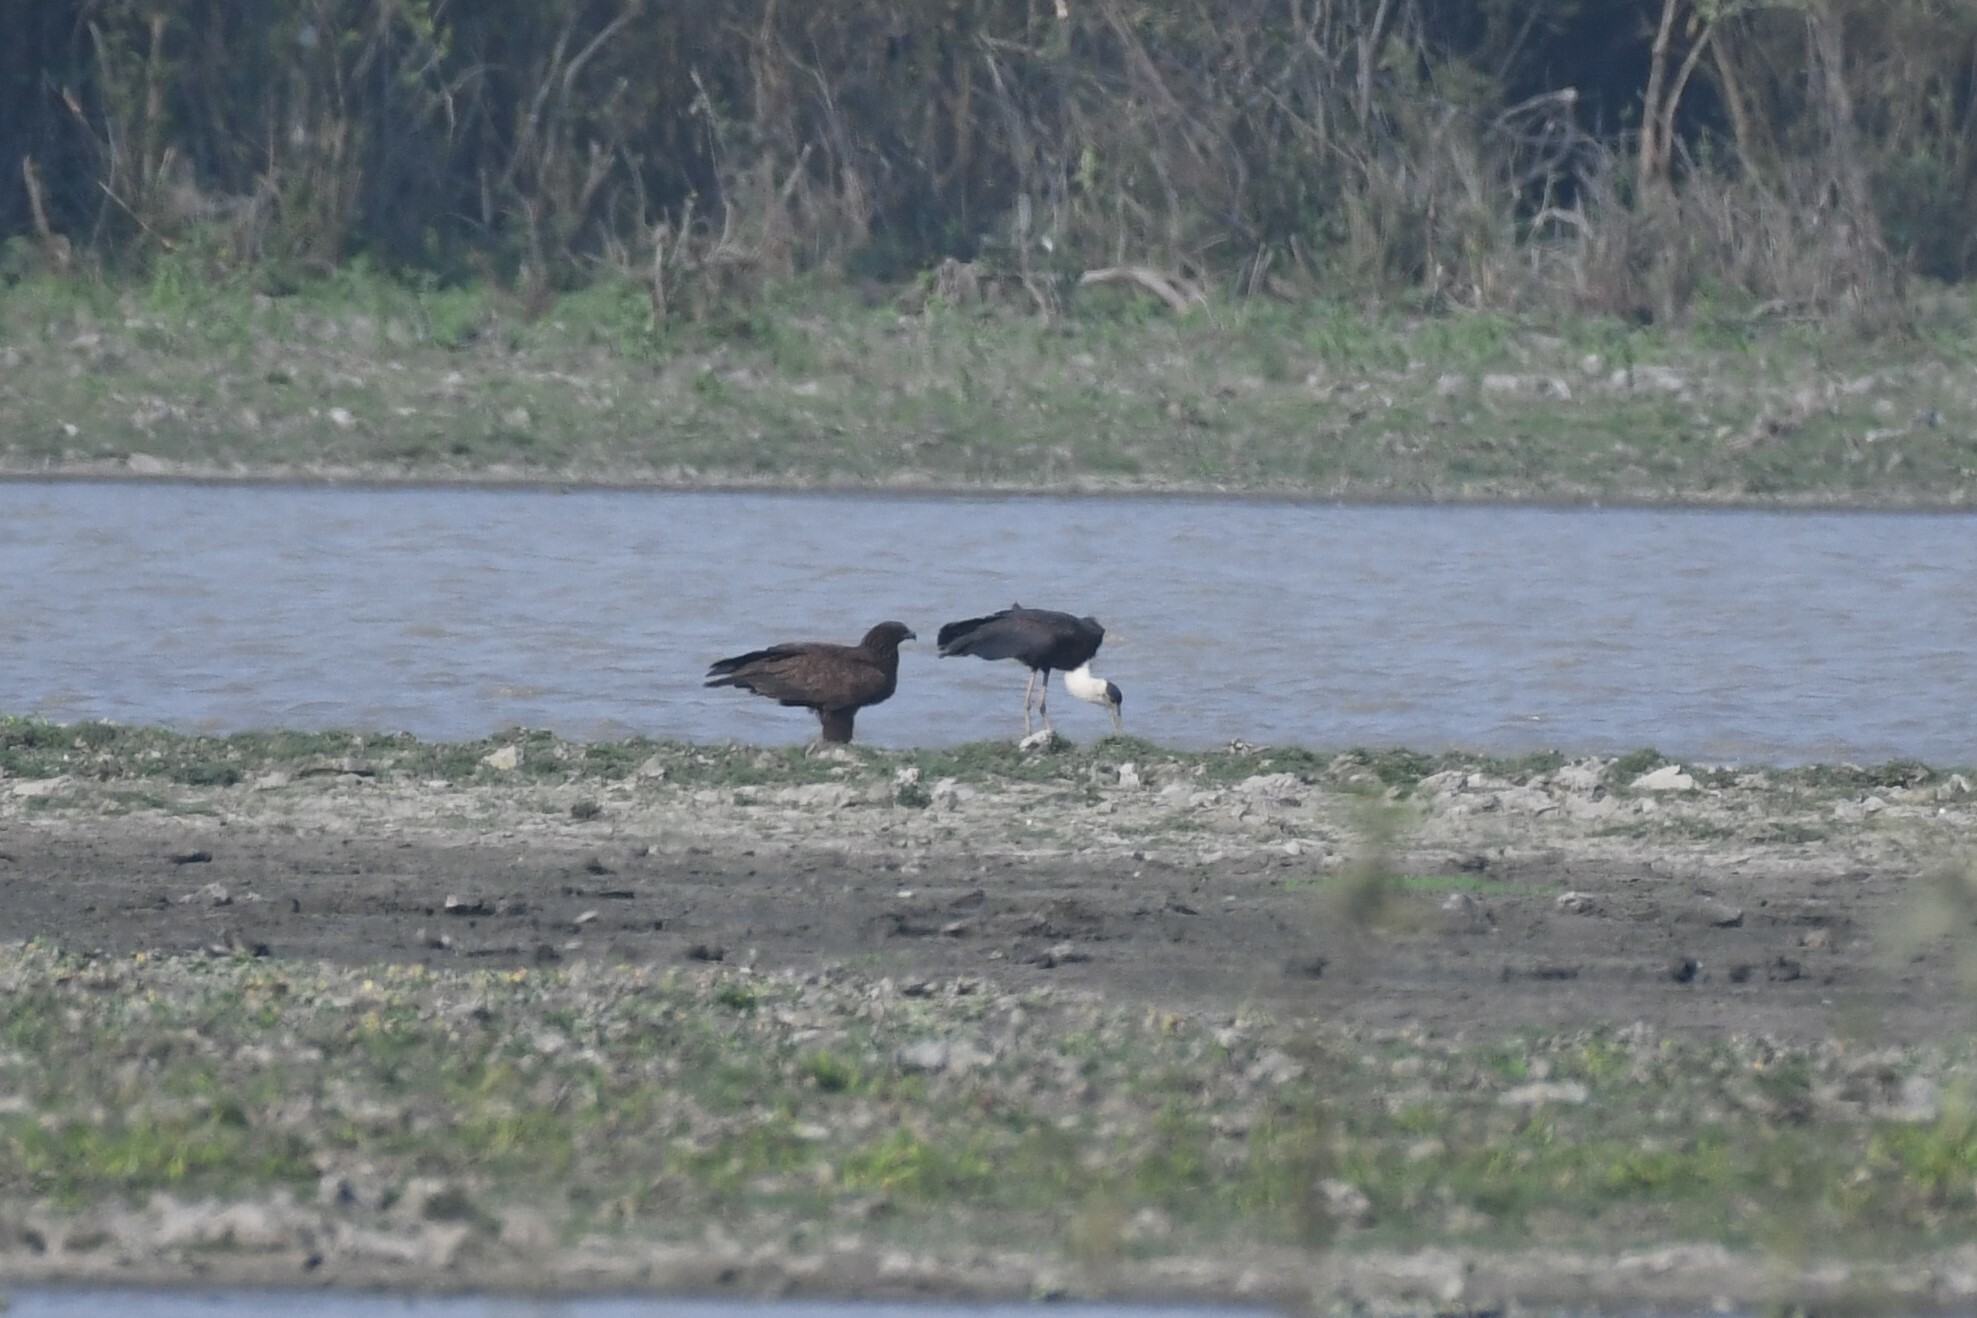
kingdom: Animalia
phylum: Chordata
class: Aves
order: Ciconiiformes
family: Ciconiidae
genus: Ciconia
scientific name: Ciconia episcopus
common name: Woolly-necked stork
